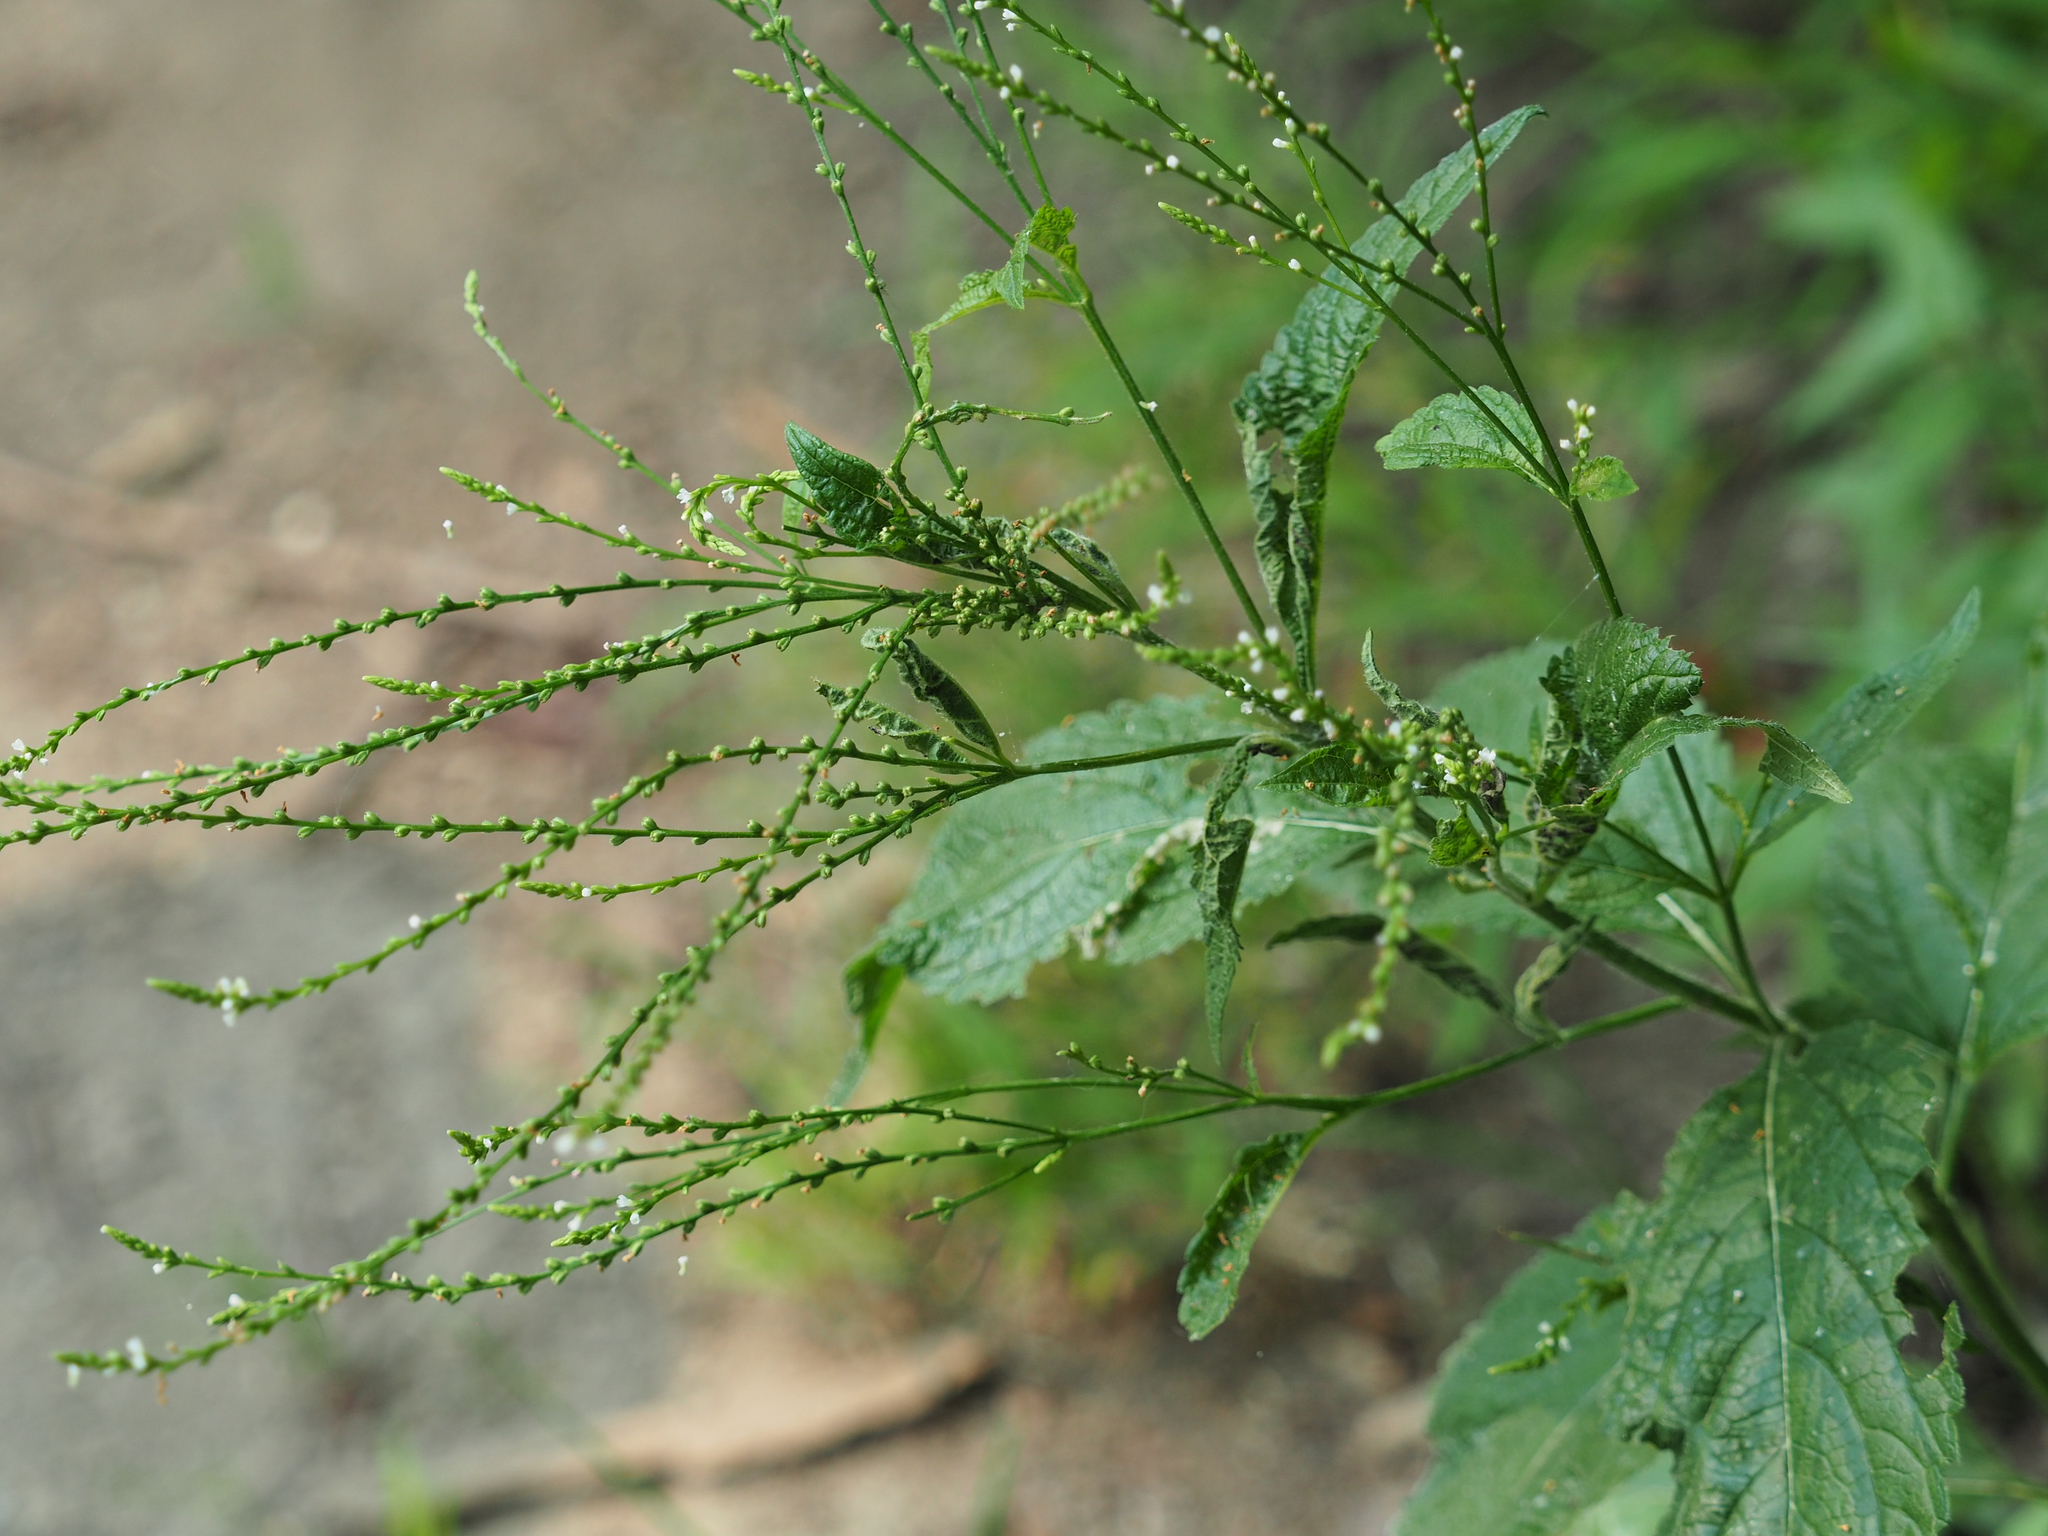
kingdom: Plantae
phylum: Tracheophyta
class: Magnoliopsida
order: Lamiales
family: Verbenaceae
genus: Verbena
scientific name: Verbena urticifolia
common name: Nettle-leaved vervain
